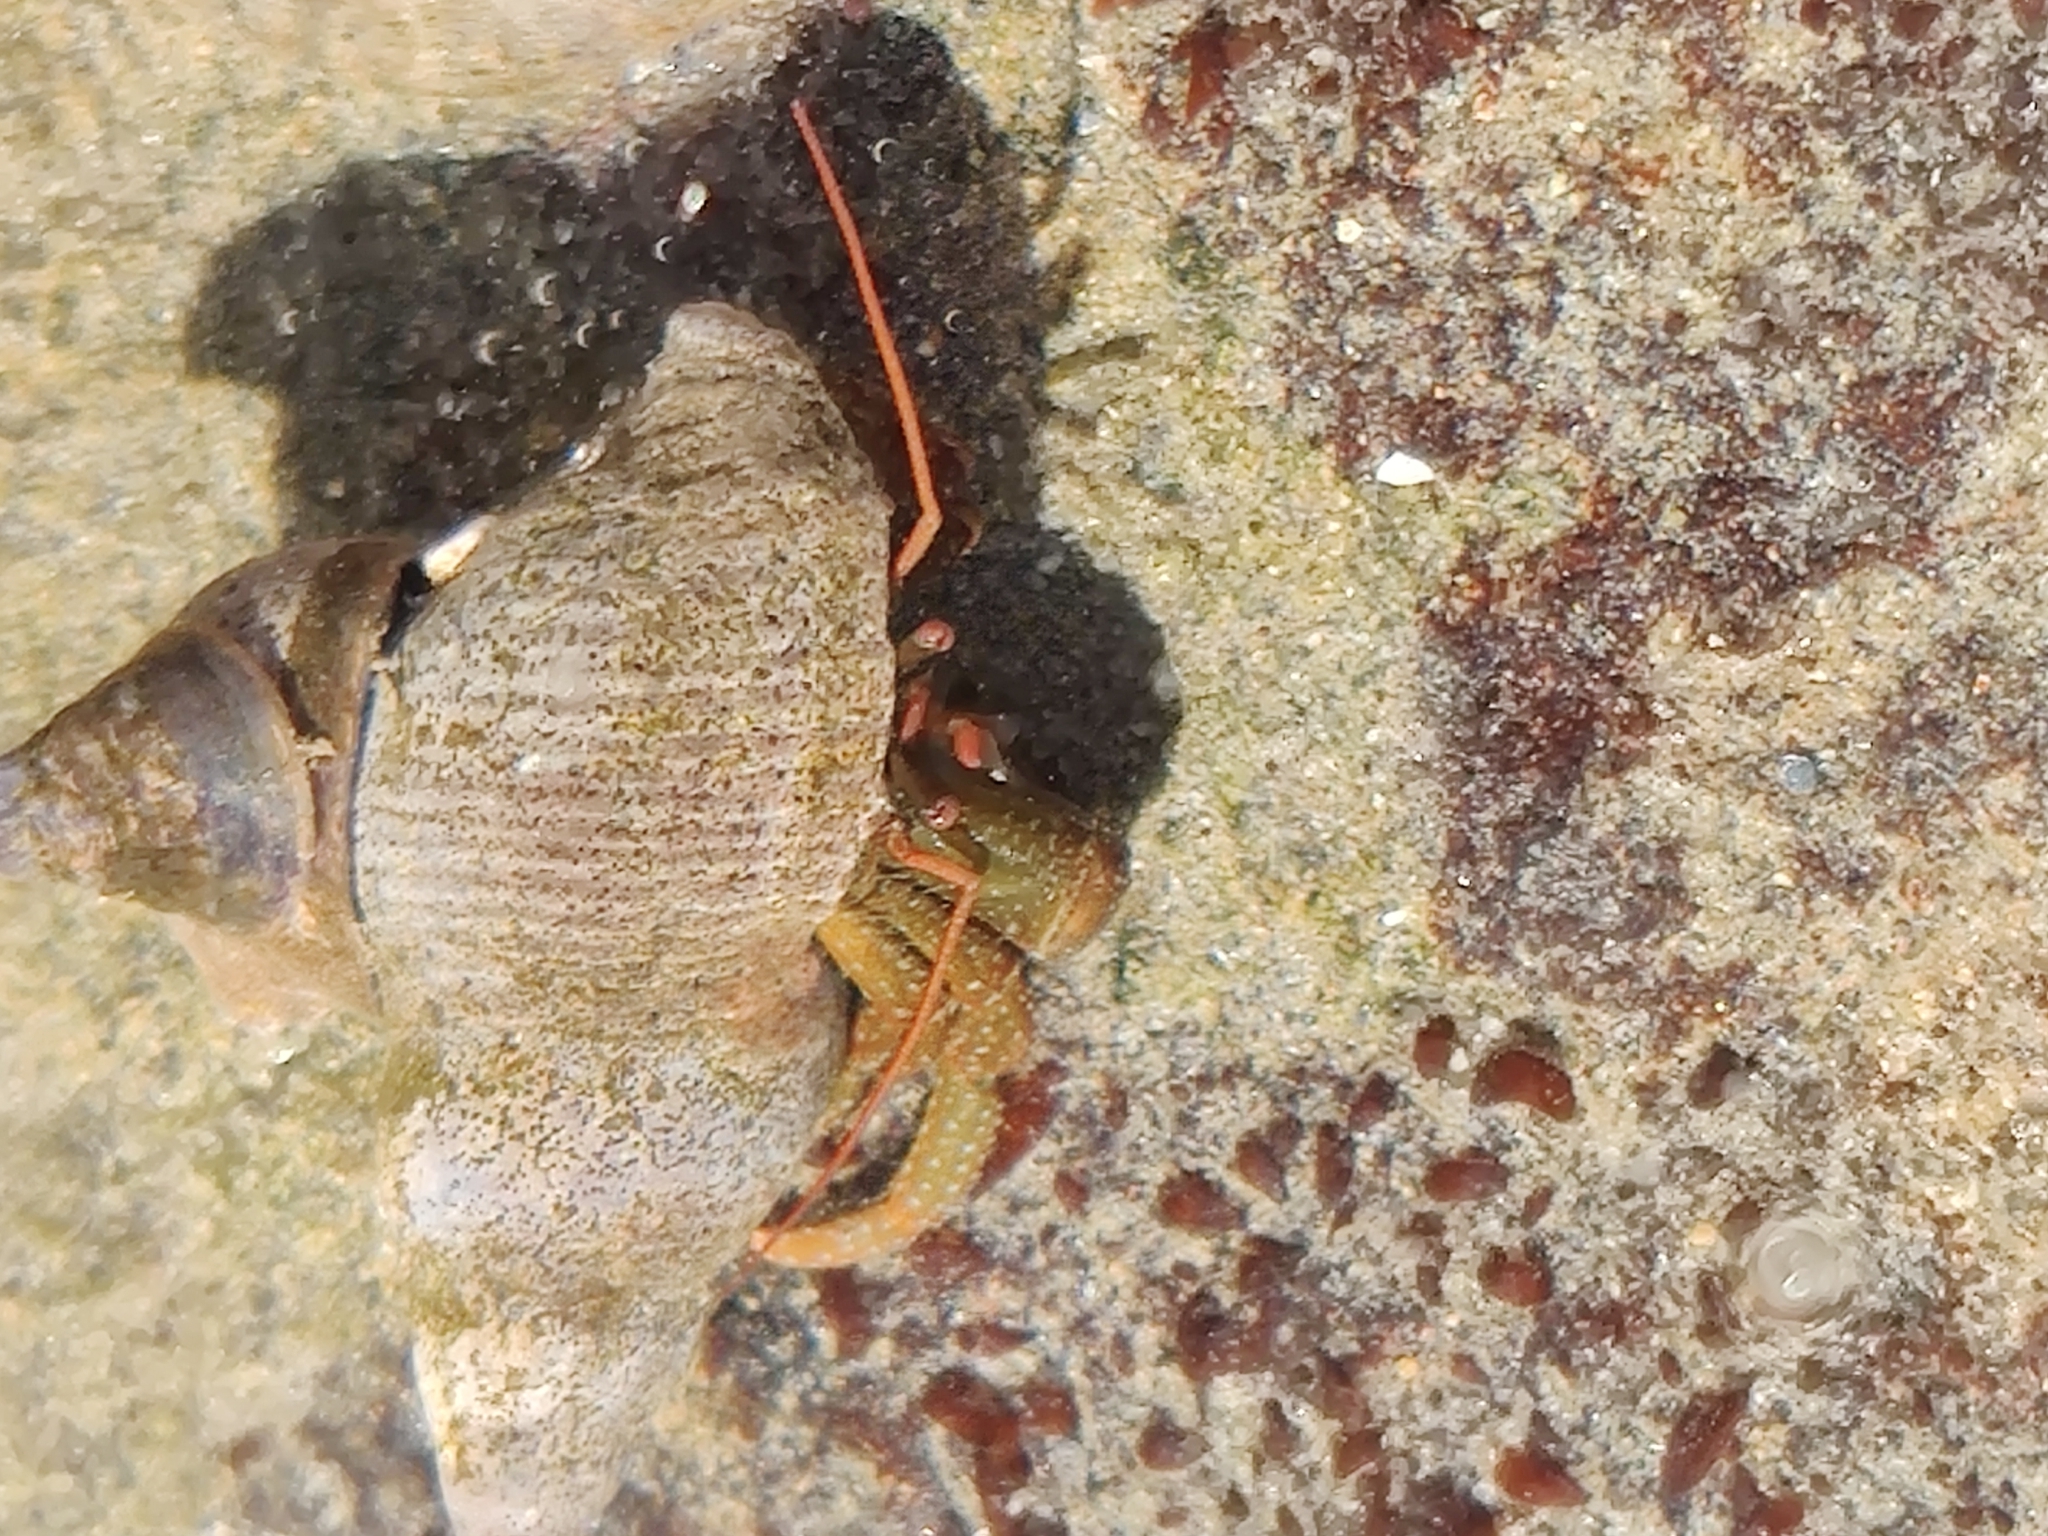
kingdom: Animalia
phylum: Arthropoda
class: Malacostraca
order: Decapoda
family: Paguridae
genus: Pagurus
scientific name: Pagurus granosimanus
